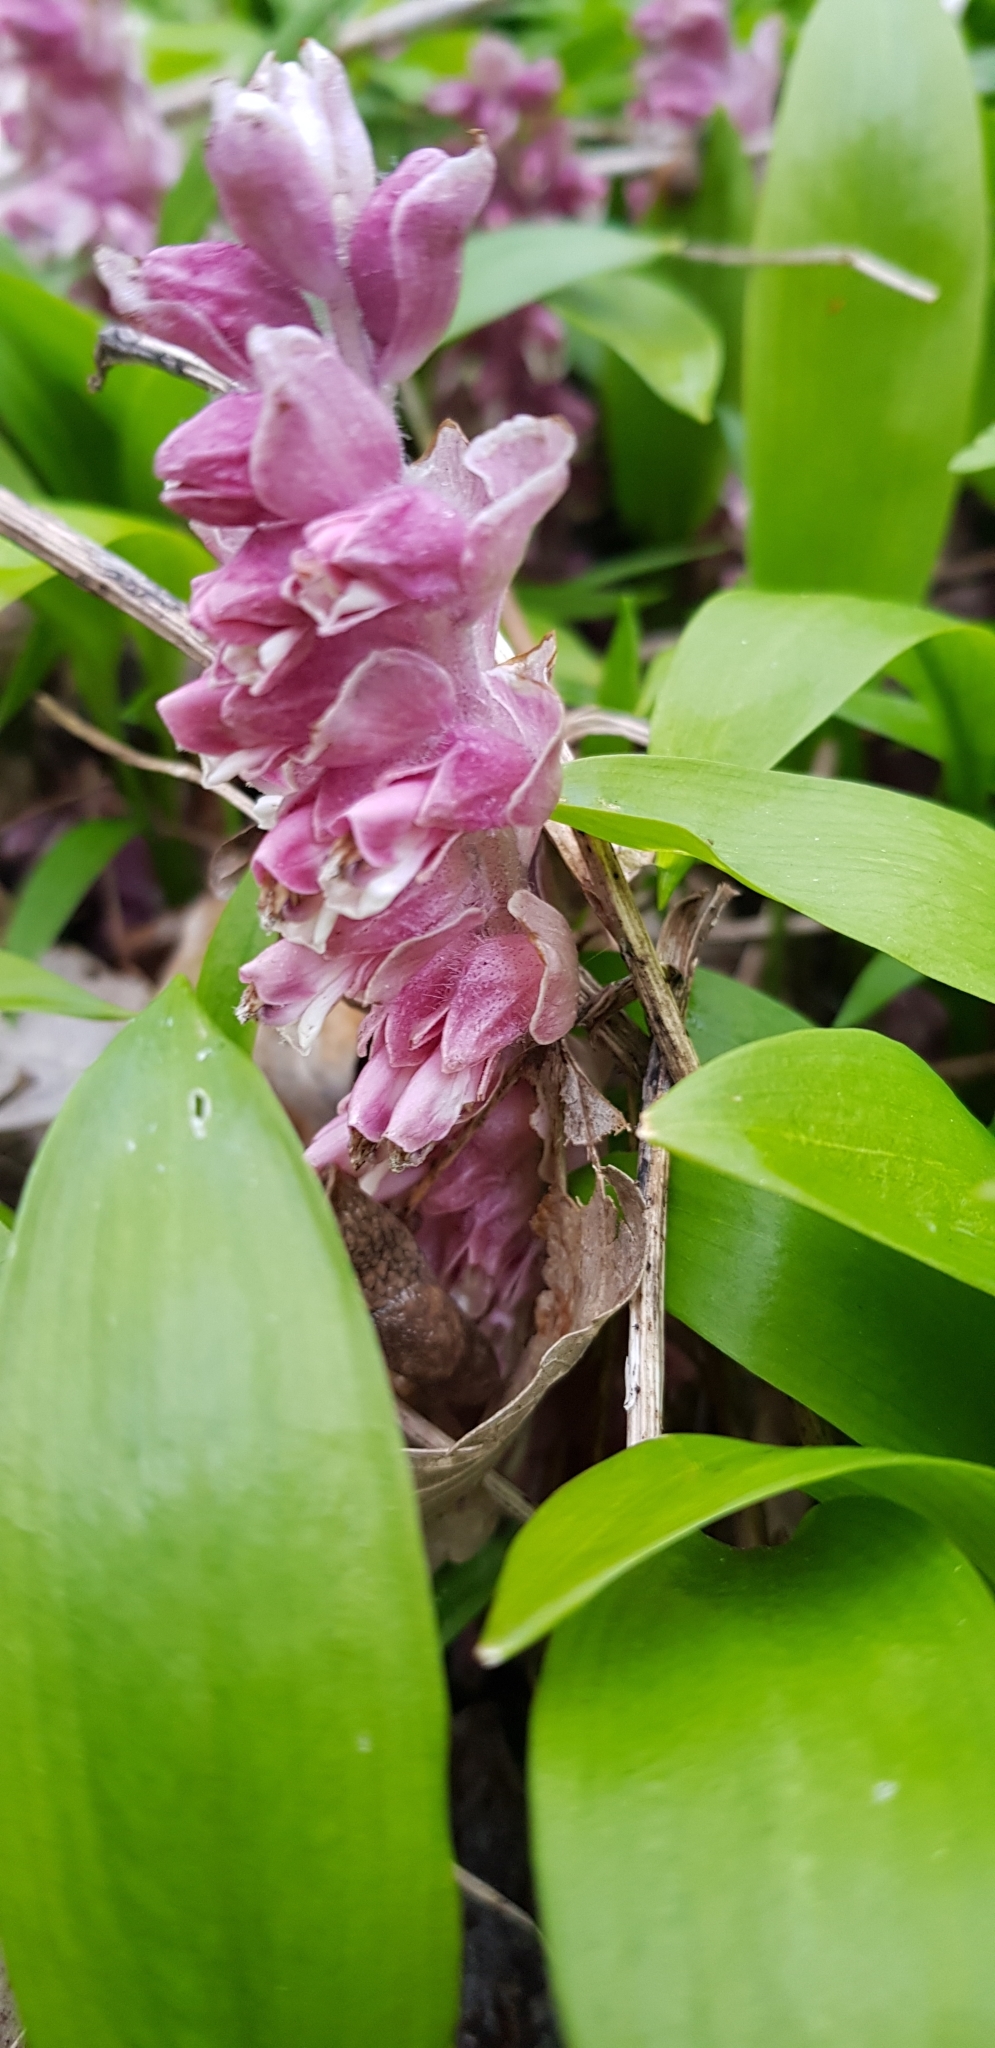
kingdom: Plantae
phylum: Tracheophyta
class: Magnoliopsida
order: Lamiales
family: Orobanchaceae
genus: Lathraea
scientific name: Lathraea squamaria
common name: Toothwort
